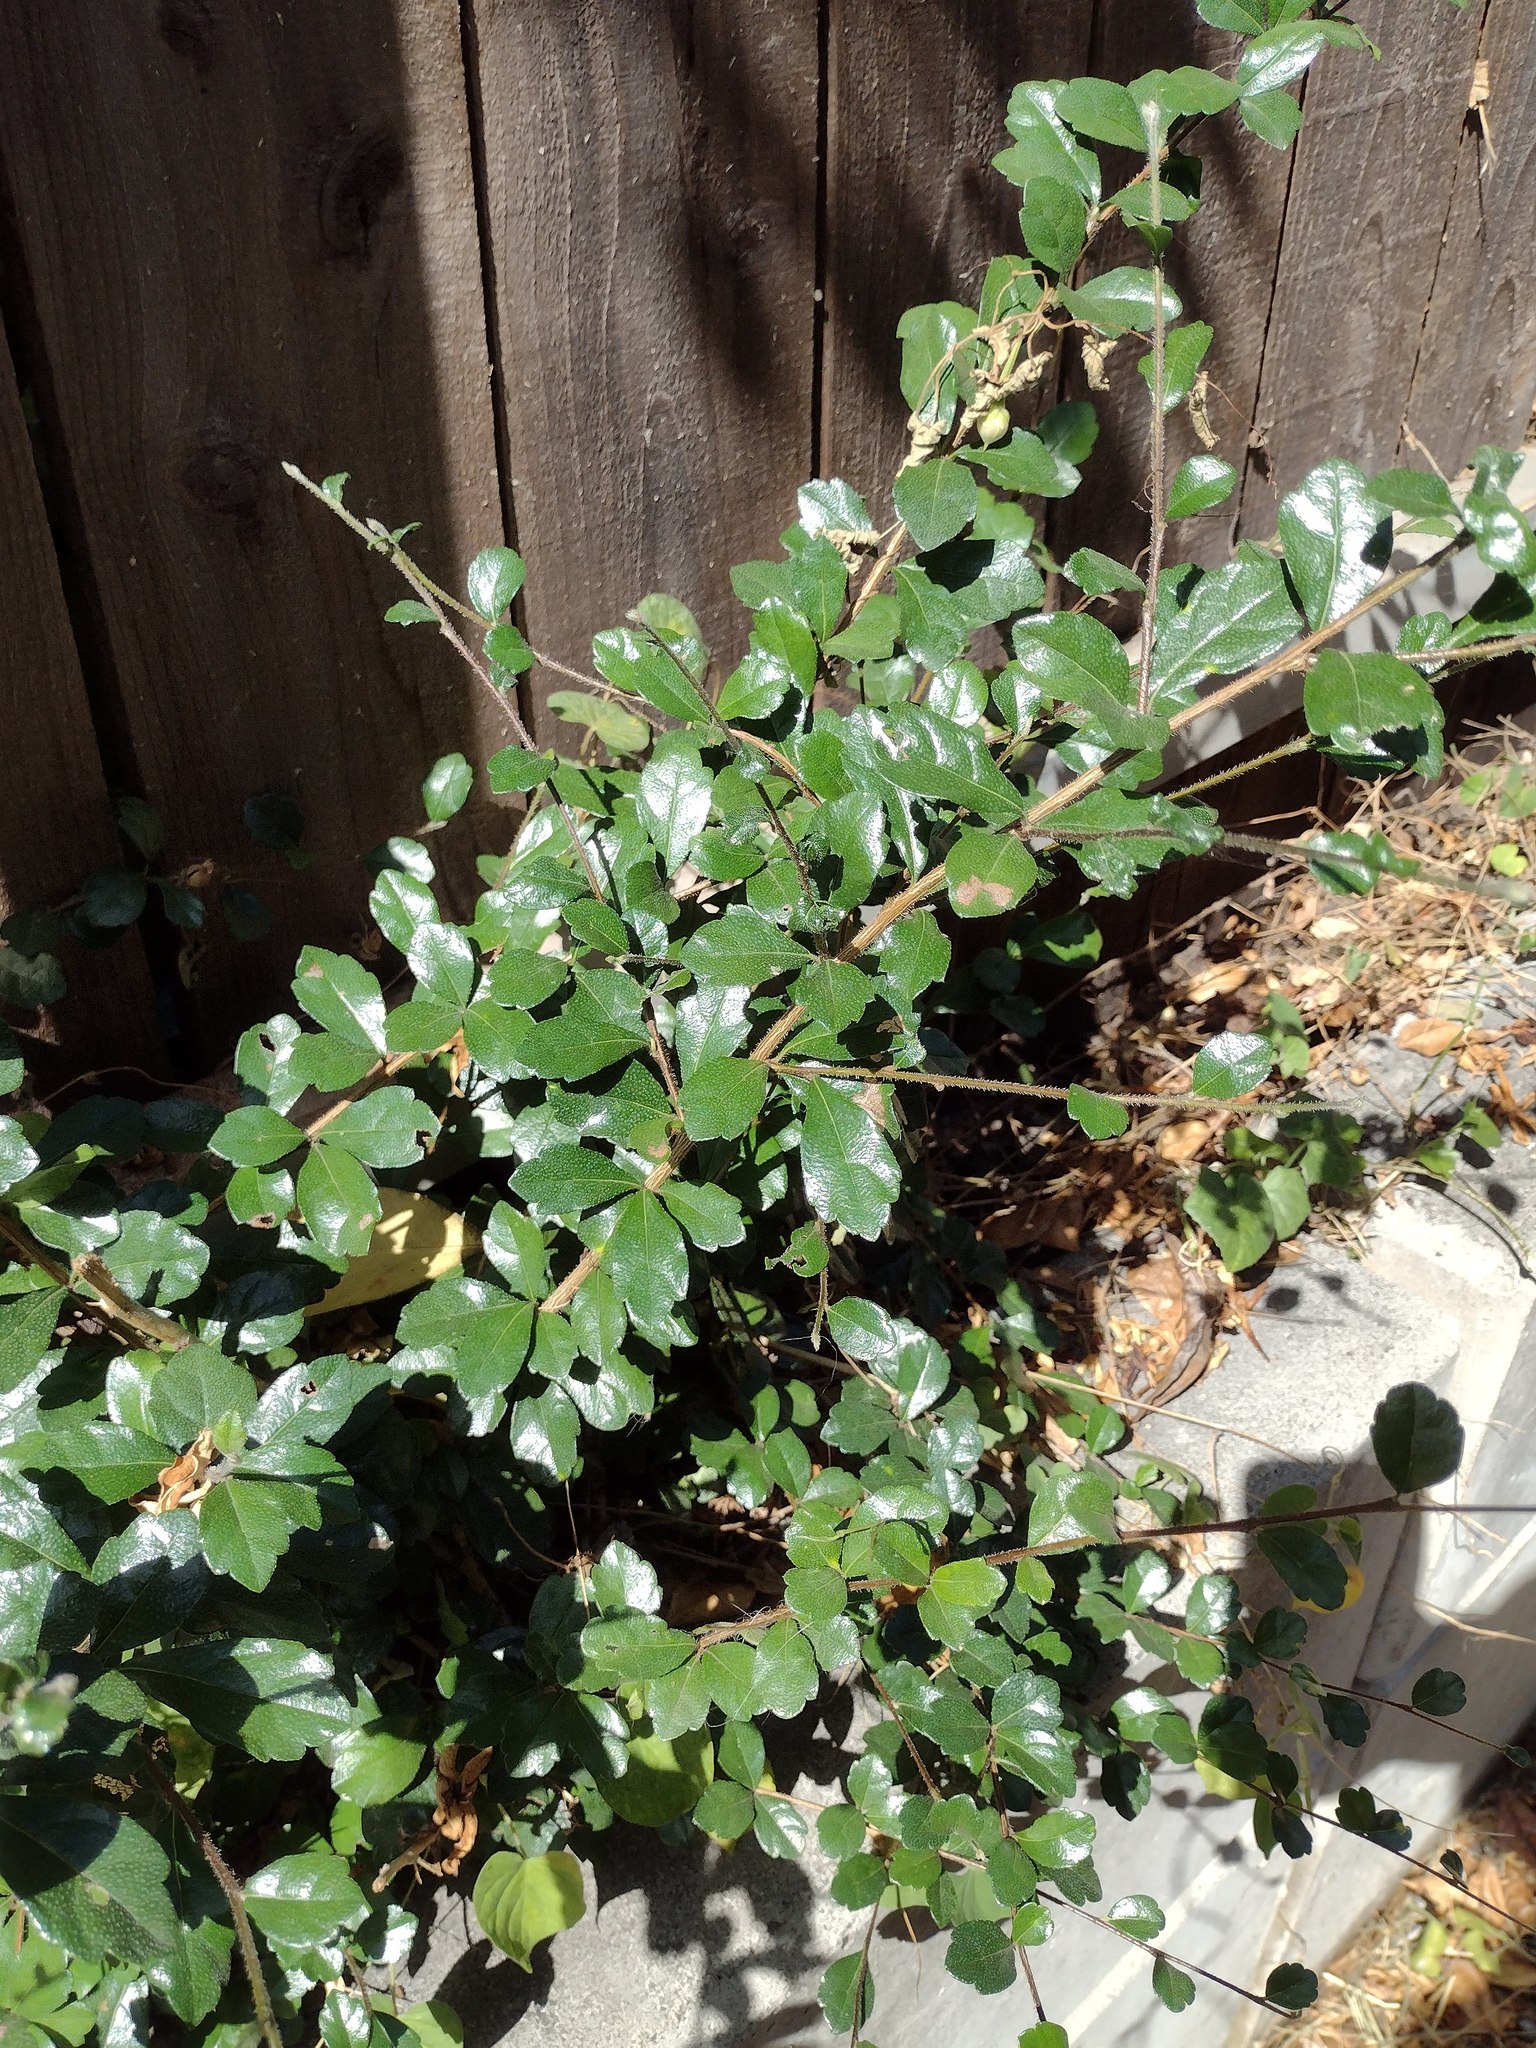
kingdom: Plantae
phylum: Tracheophyta
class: Magnoliopsida
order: Boraginales
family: Ehretiaceae
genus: Ehretia
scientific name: Ehretia microphylla
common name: Fukien-tea
